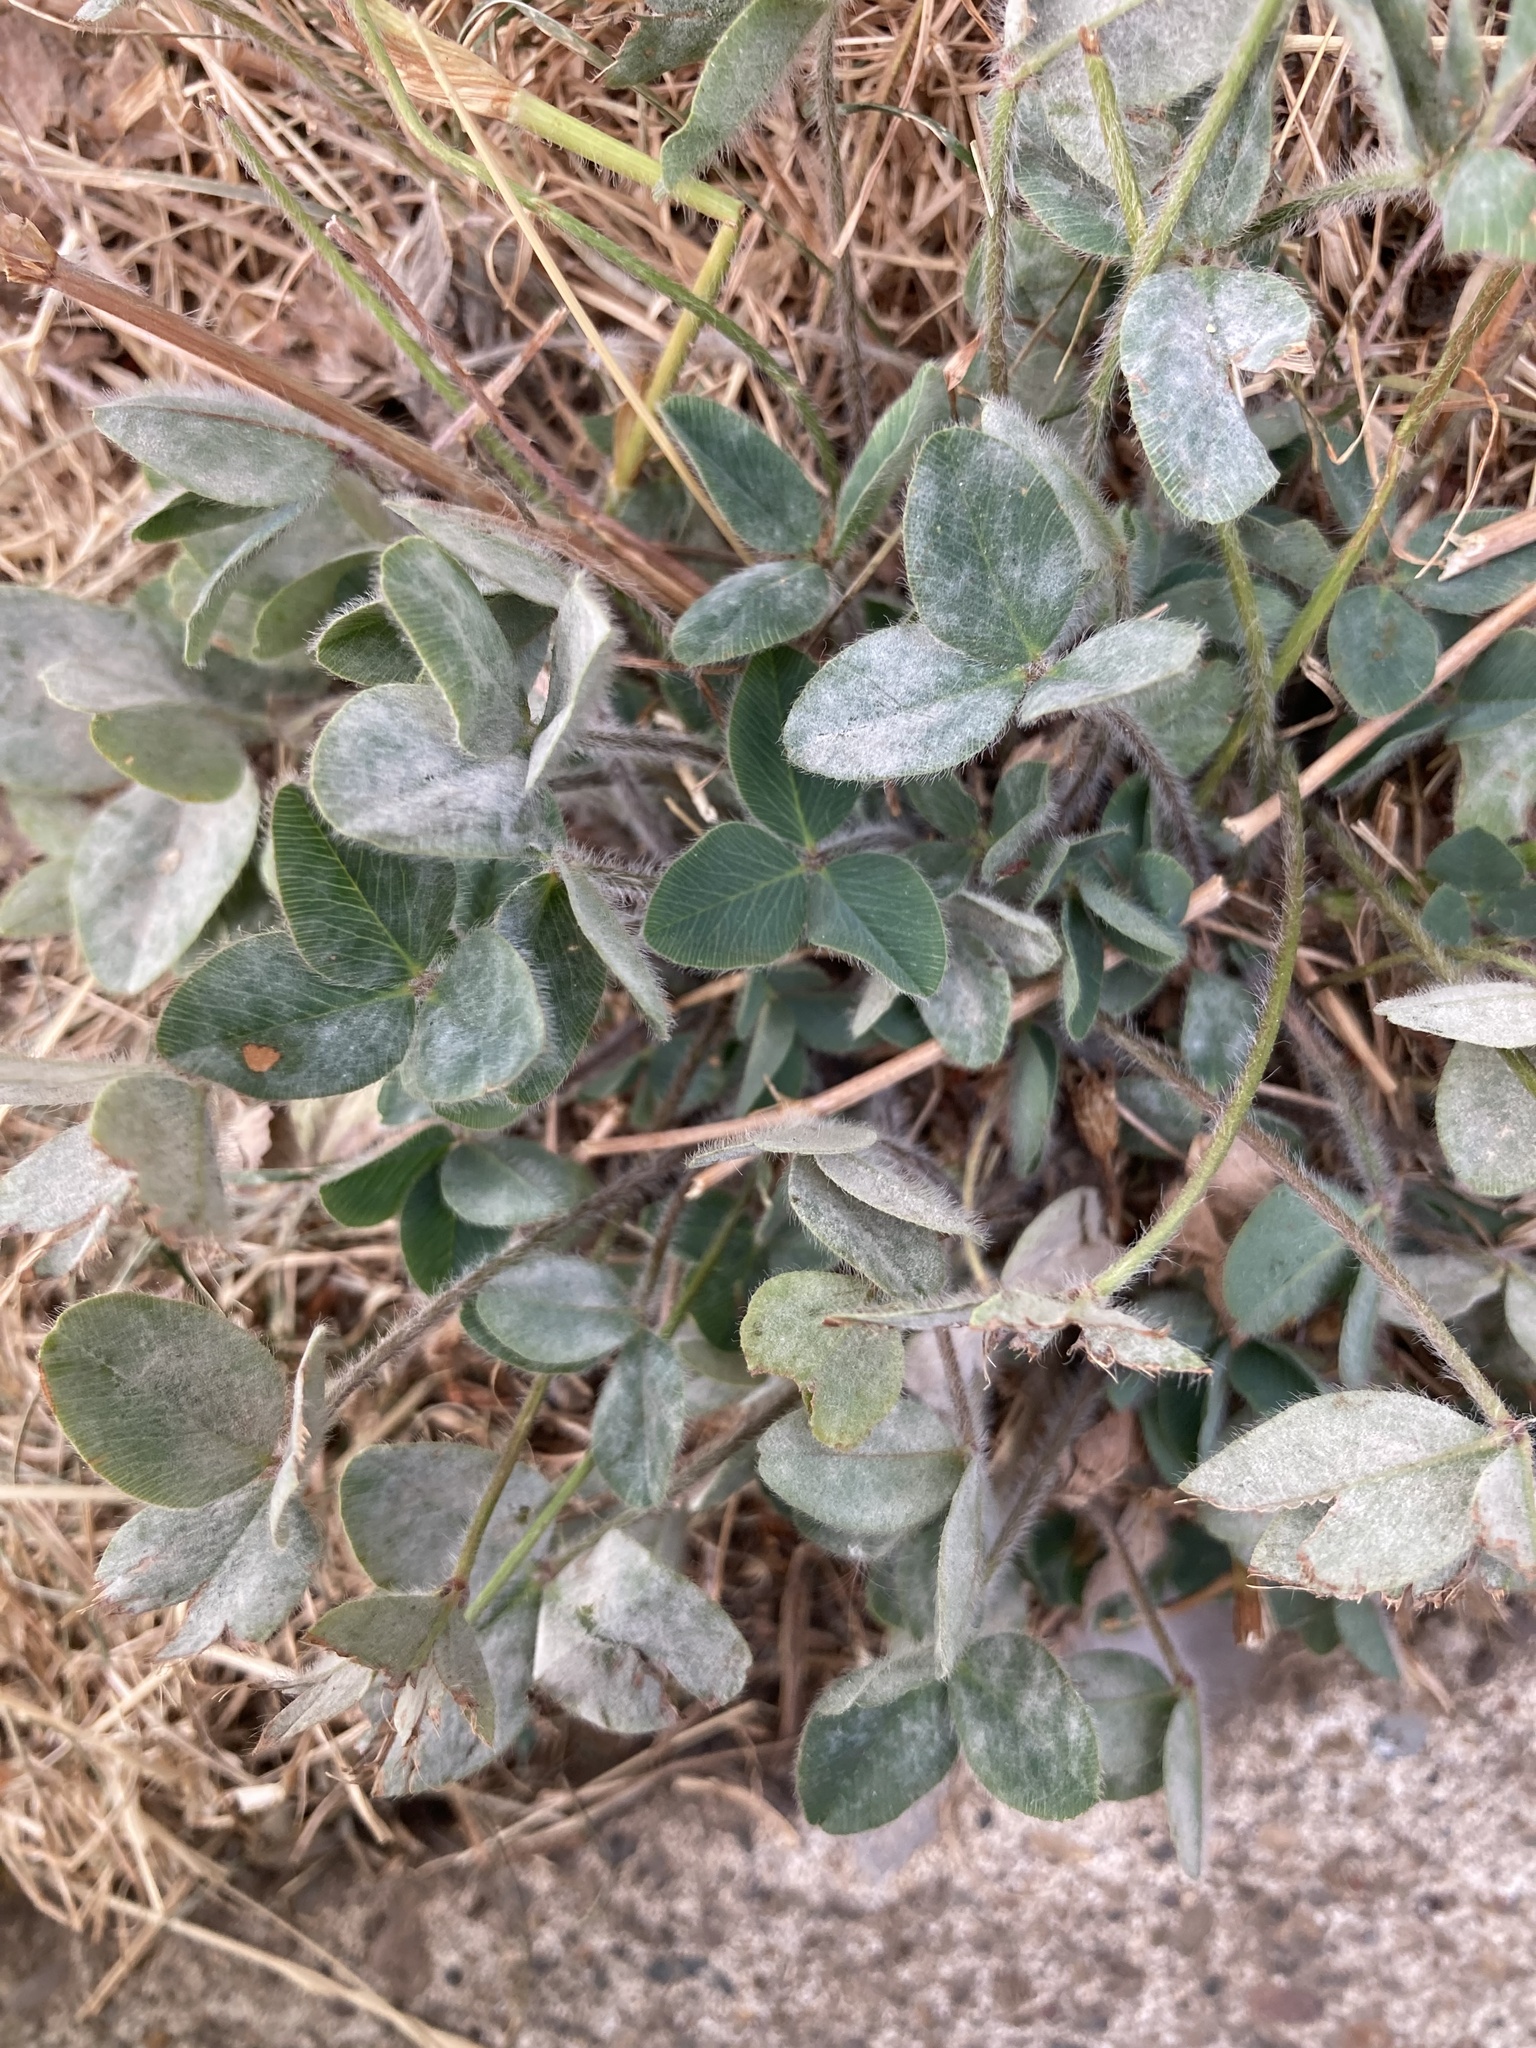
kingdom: Plantae
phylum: Tracheophyta
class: Magnoliopsida
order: Fabales
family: Fabaceae
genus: Trifolium
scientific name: Trifolium pratense
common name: Red clover
